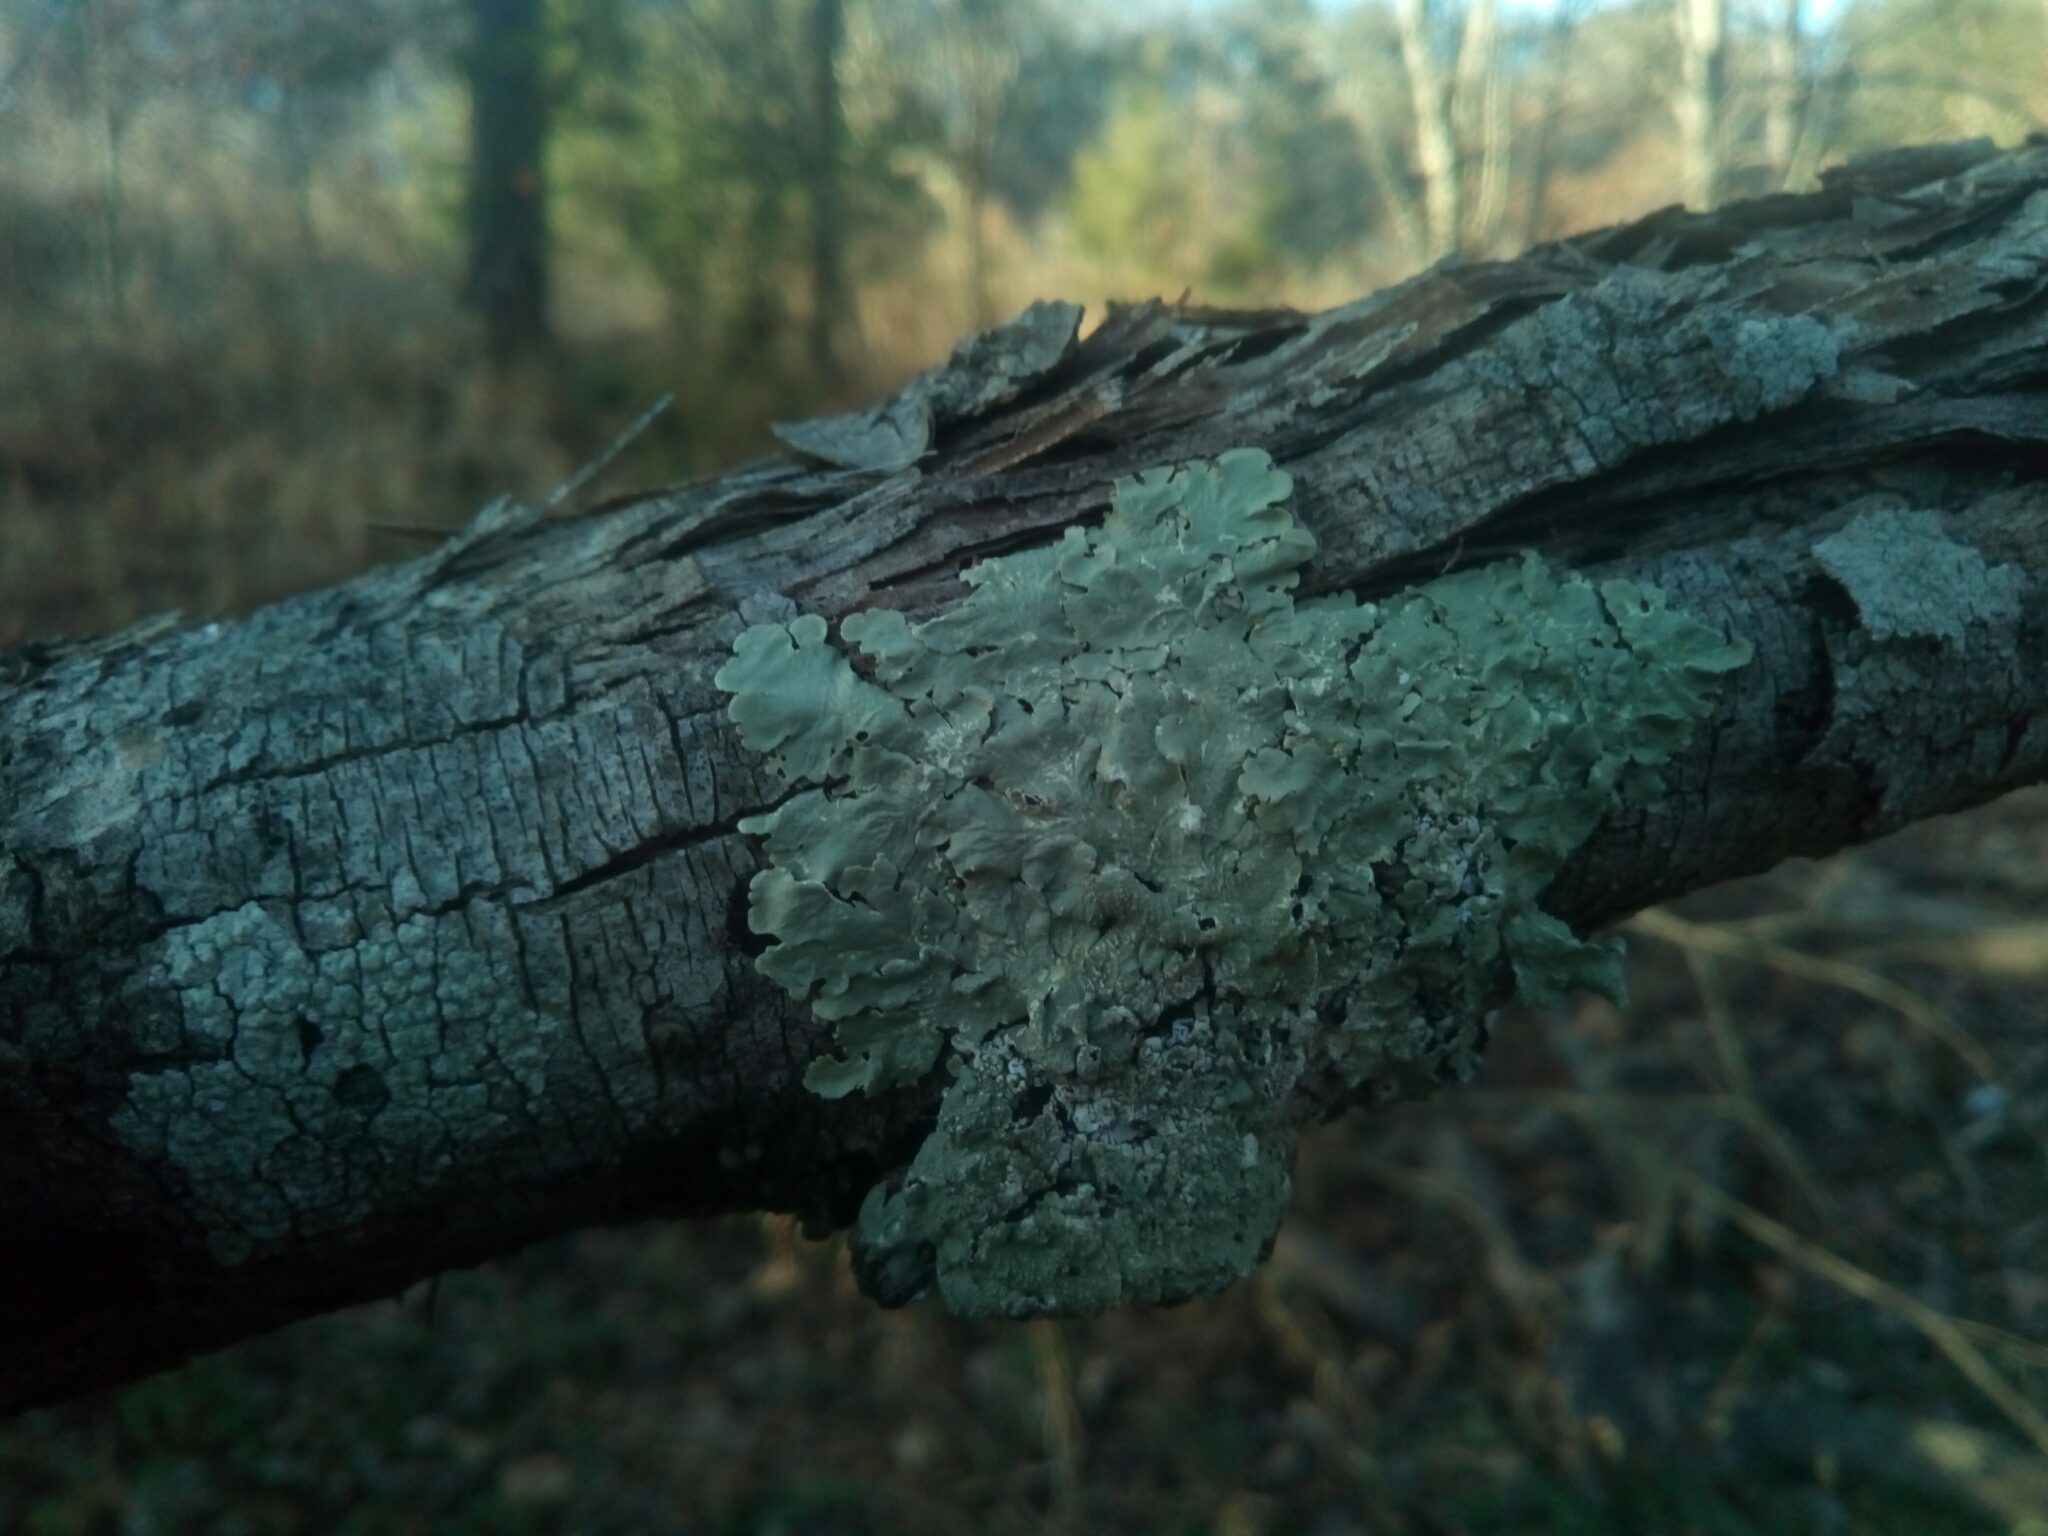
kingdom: Fungi
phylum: Ascomycota
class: Lecanoromycetes
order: Lecanorales
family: Parmeliaceae
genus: Flavoparmelia
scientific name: Flavoparmelia caperata
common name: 40-mile per hour lichen
